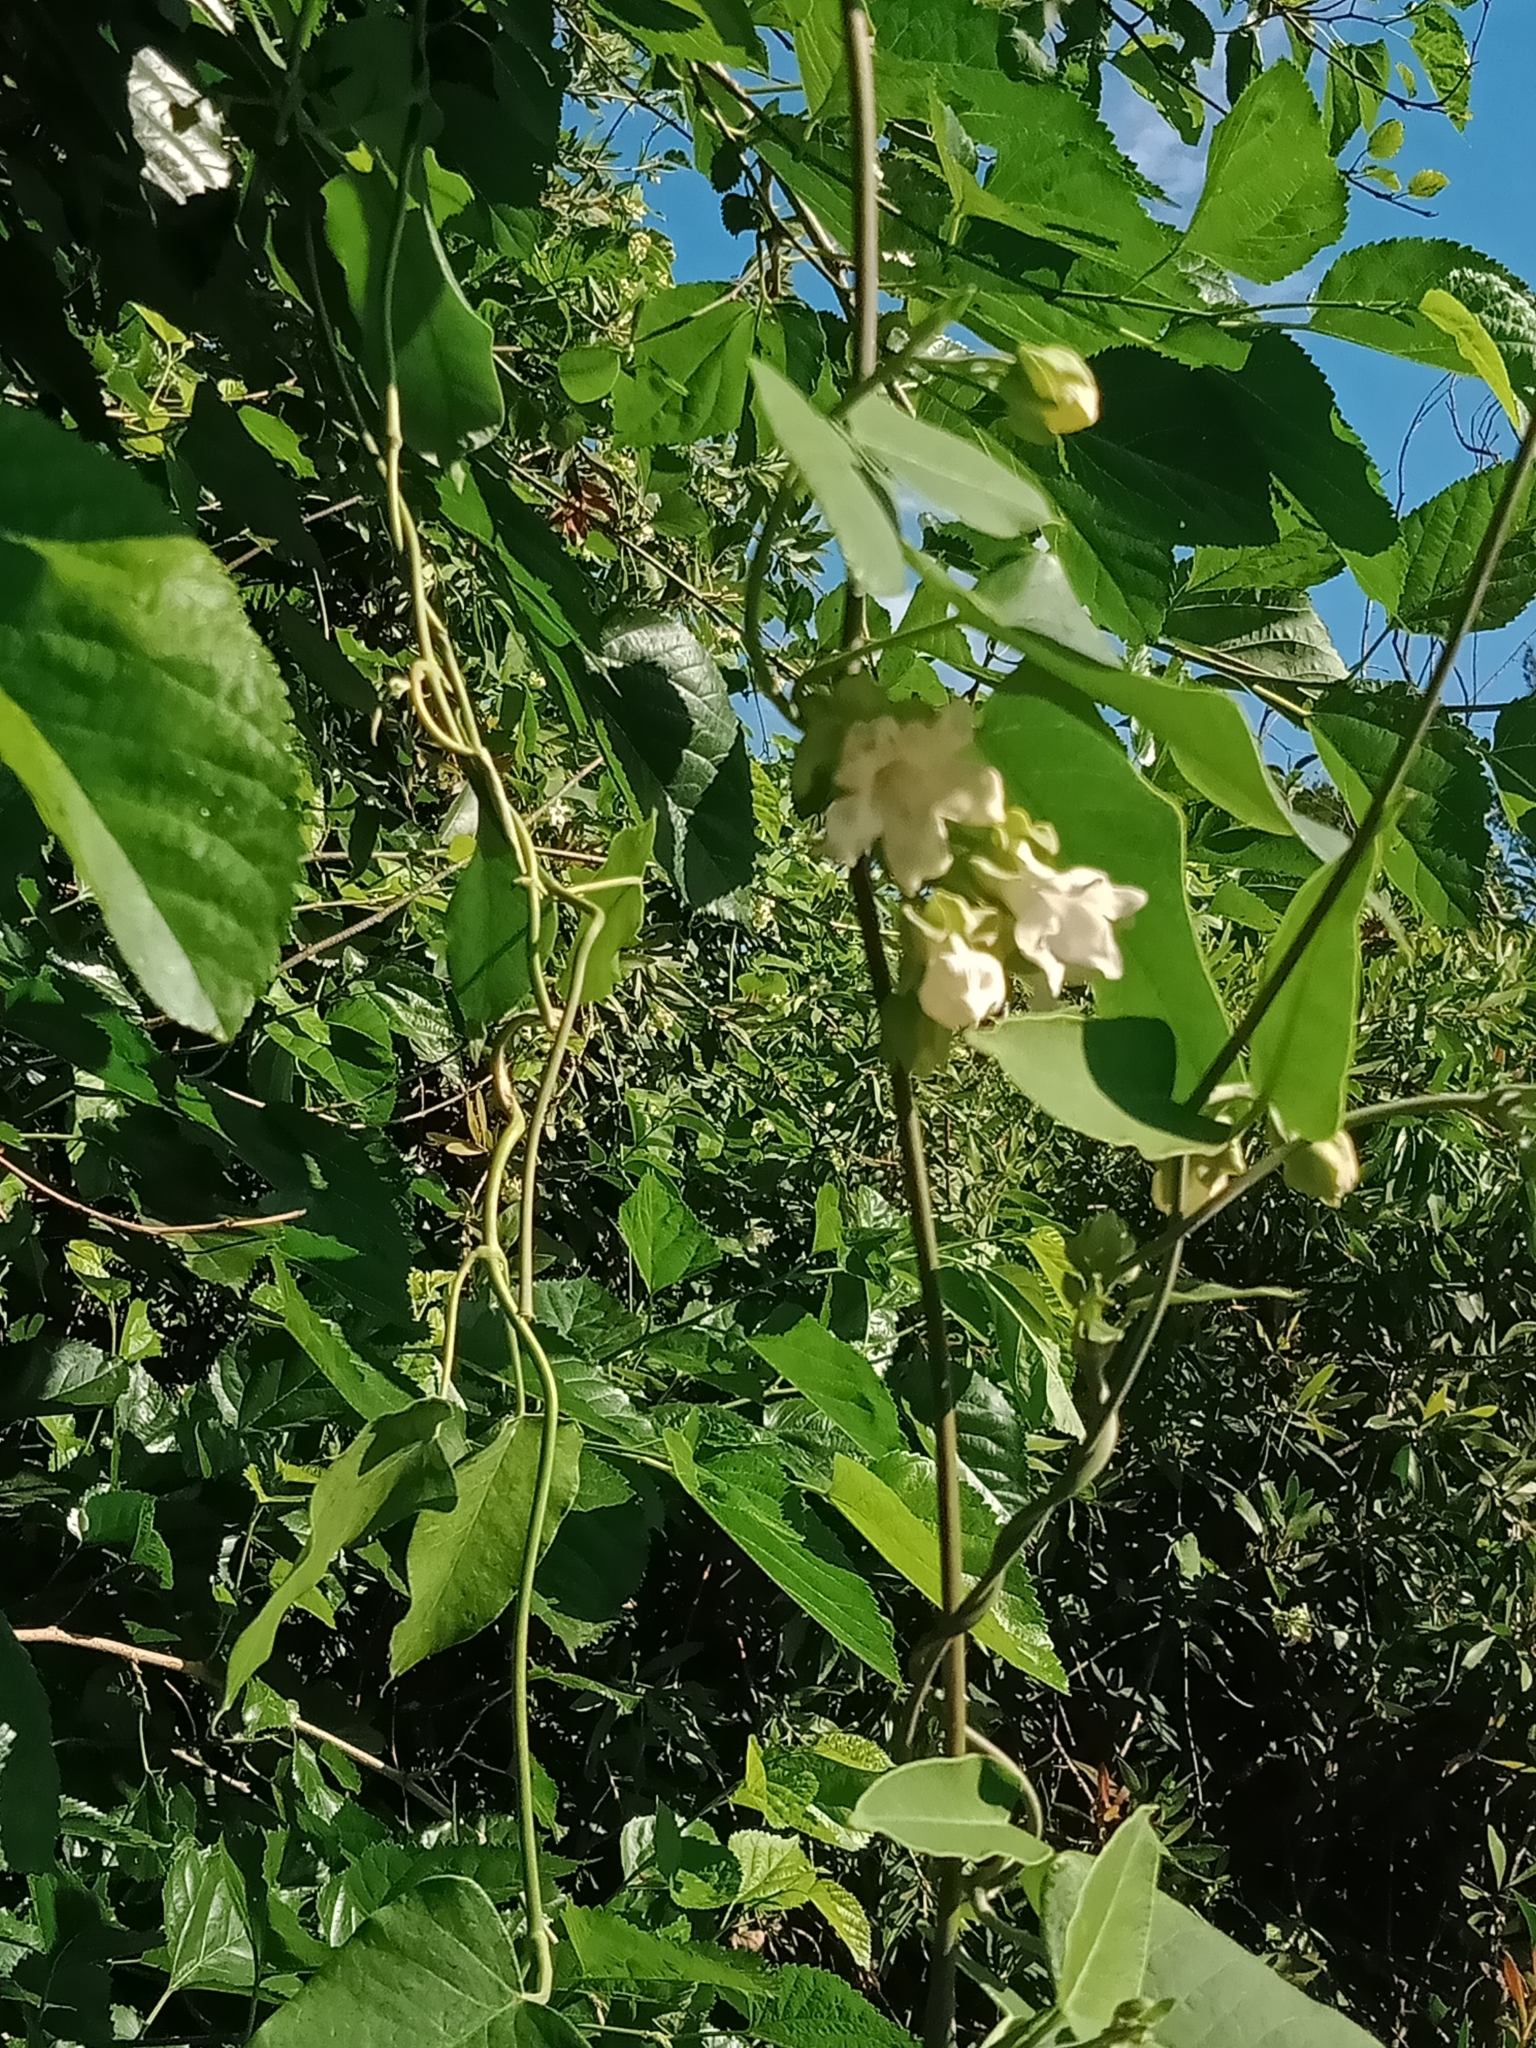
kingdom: Plantae
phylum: Tracheophyta
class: Magnoliopsida
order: Gentianales
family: Apocynaceae
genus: Araujia
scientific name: Araujia sericifera
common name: White bladderflower
